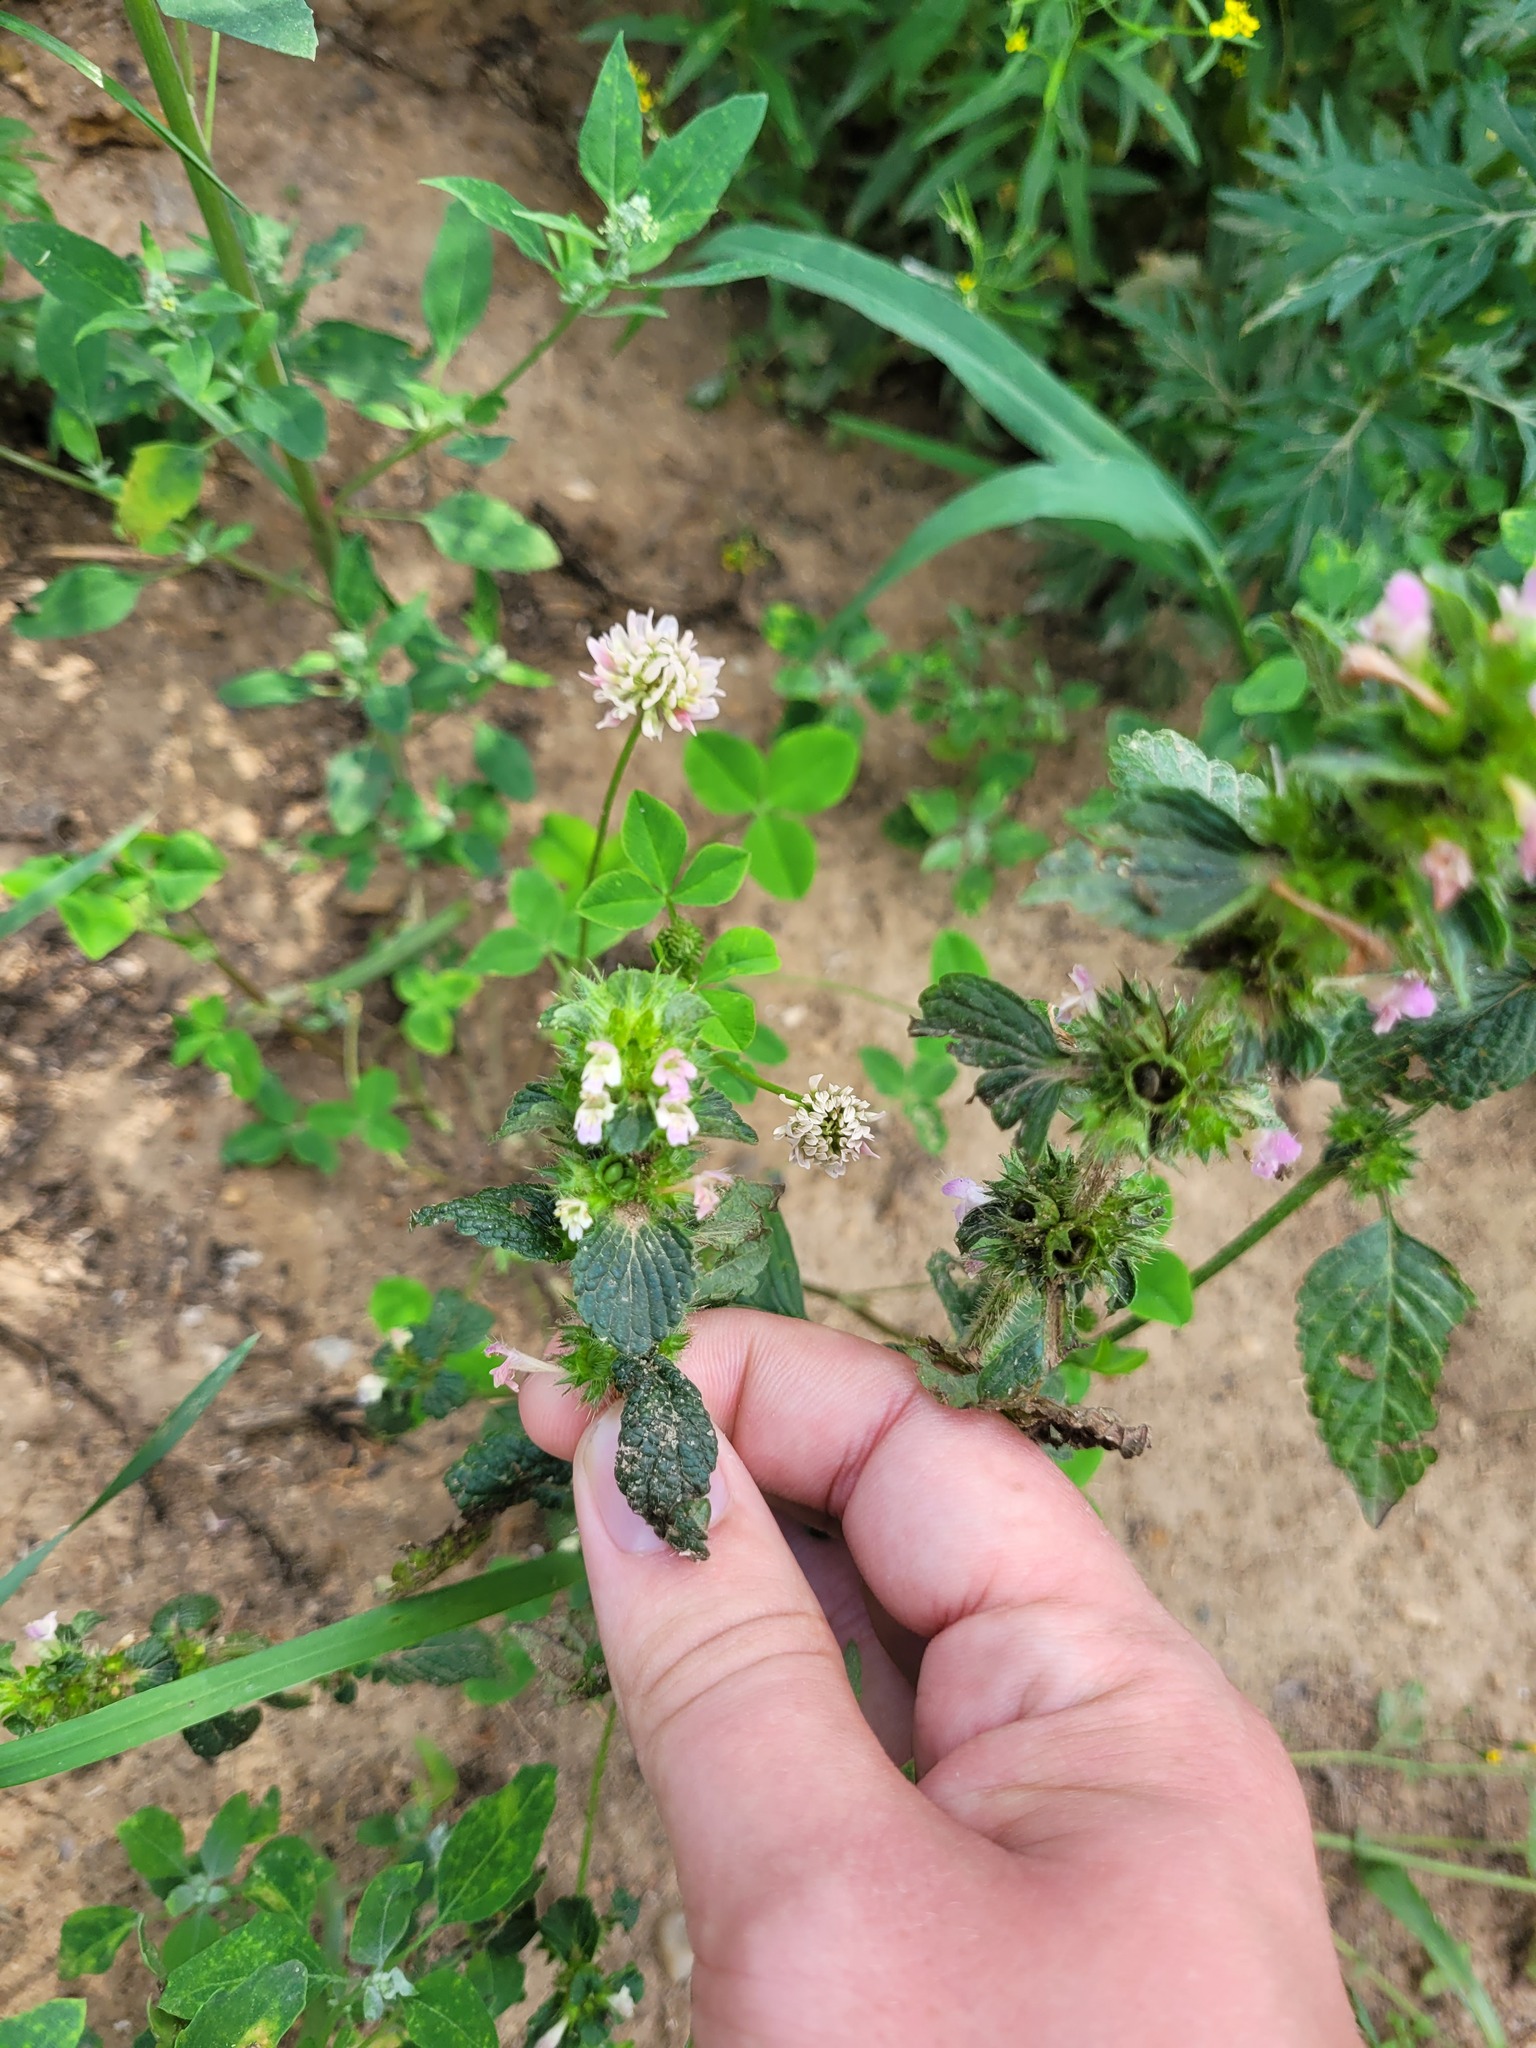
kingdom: Plantae
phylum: Tracheophyta
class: Magnoliopsida
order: Lamiales
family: Lamiaceae
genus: Galeopsis
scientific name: Galeopsis bifida
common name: Bifid hemp-nettle
